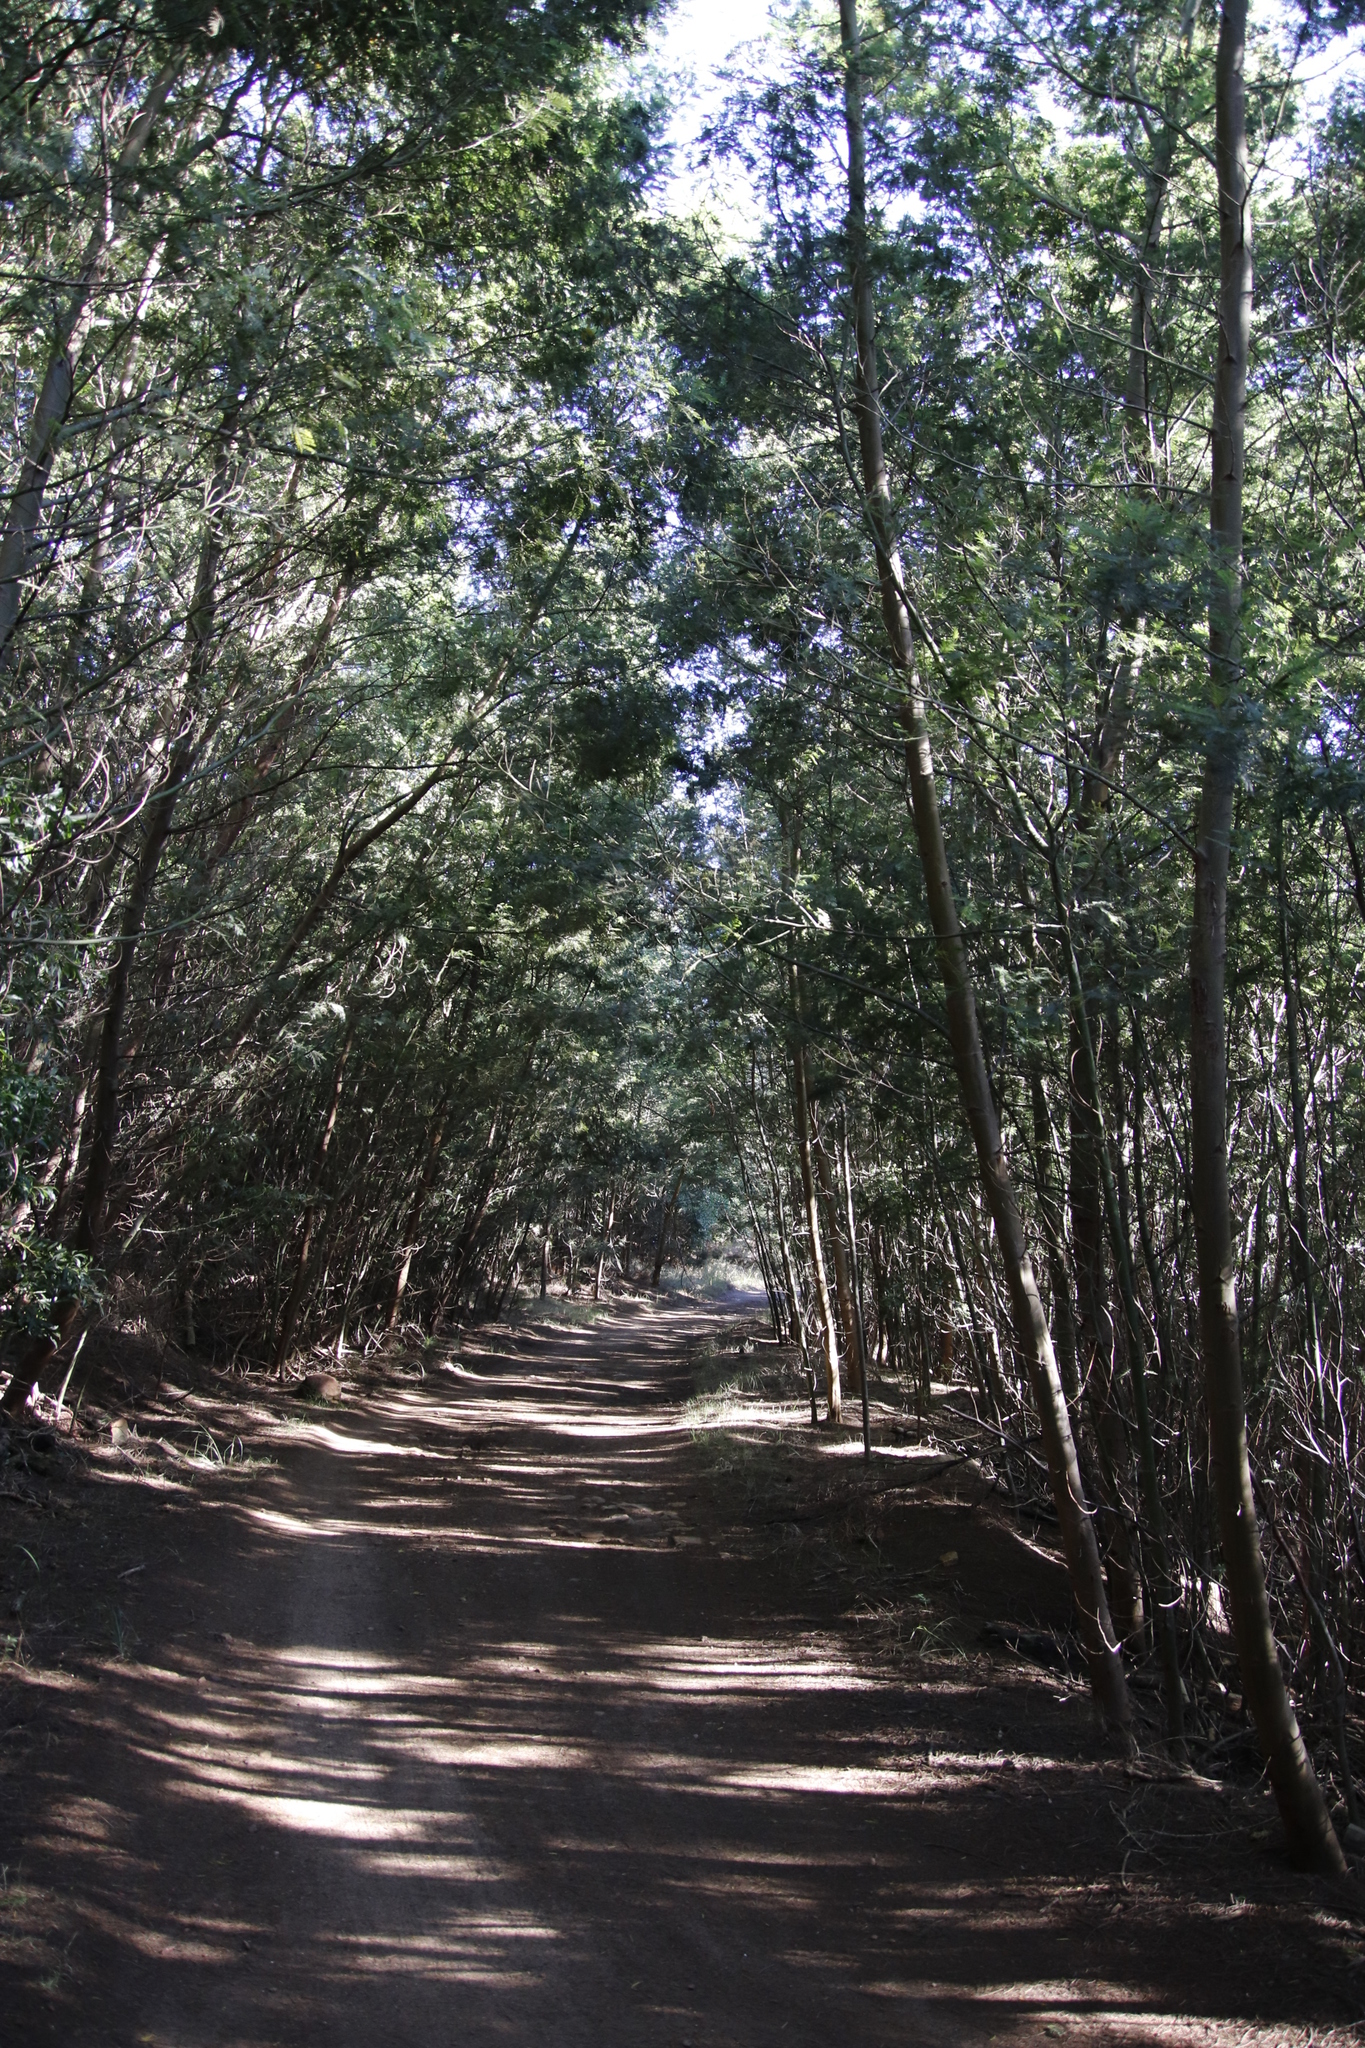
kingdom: Plantae
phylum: Tracheophyta
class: Magnoliopsida
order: Fabales
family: Fabaceae
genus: Acacia
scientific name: Acacia mearnsii
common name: Black wattle
